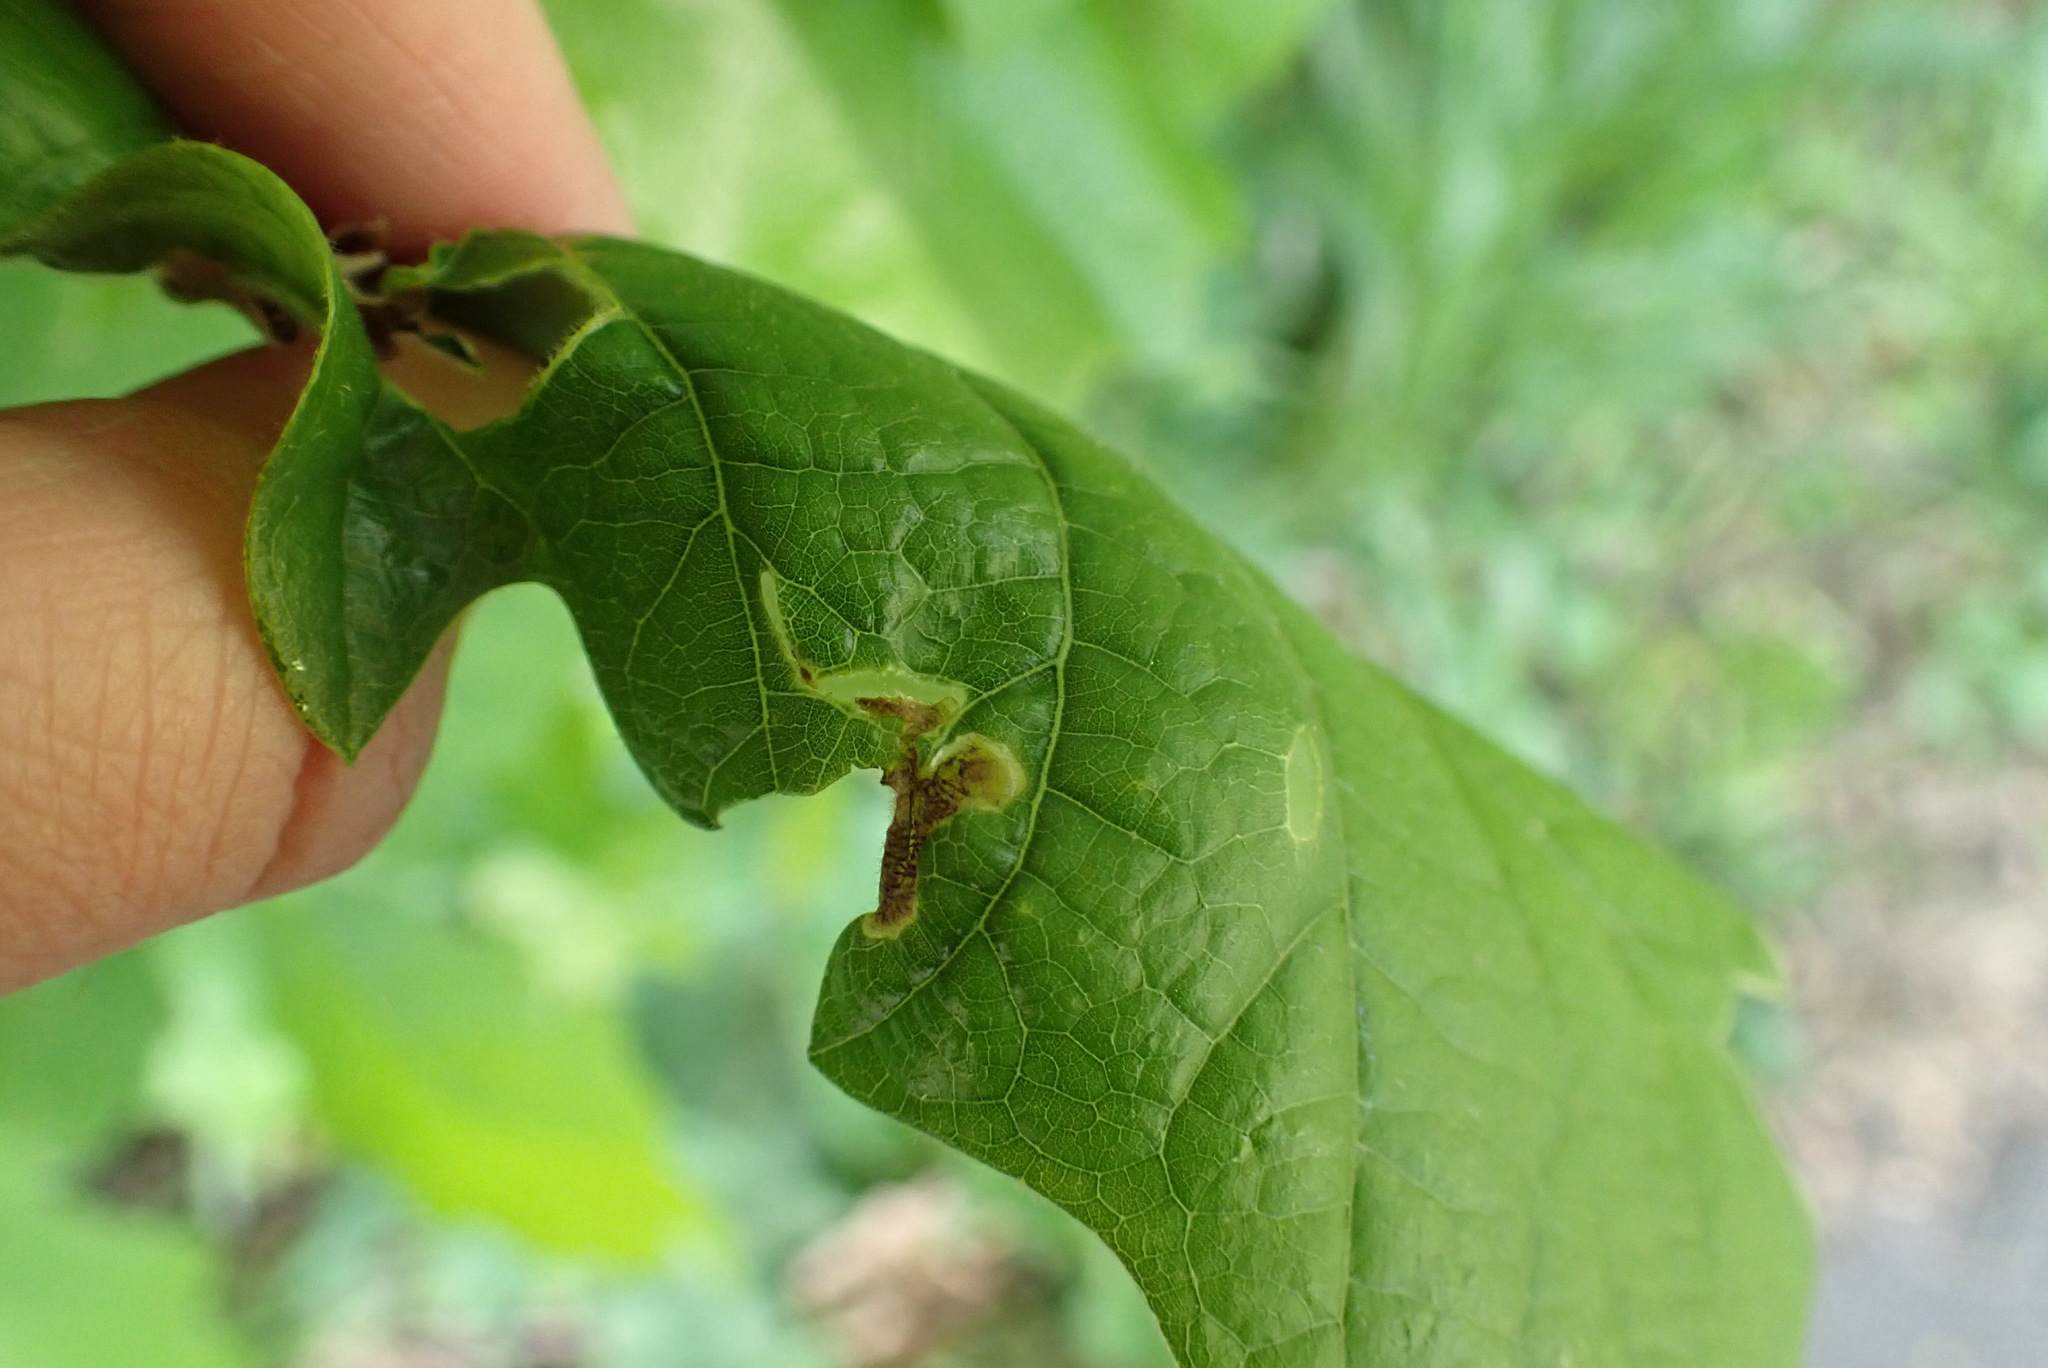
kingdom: Animalia
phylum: Arthropoda
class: Insecta
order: Diptera
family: Agromyzidae
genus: Japanagromyza
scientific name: Japanagromyza viridula
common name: Oak shothole leafminer
